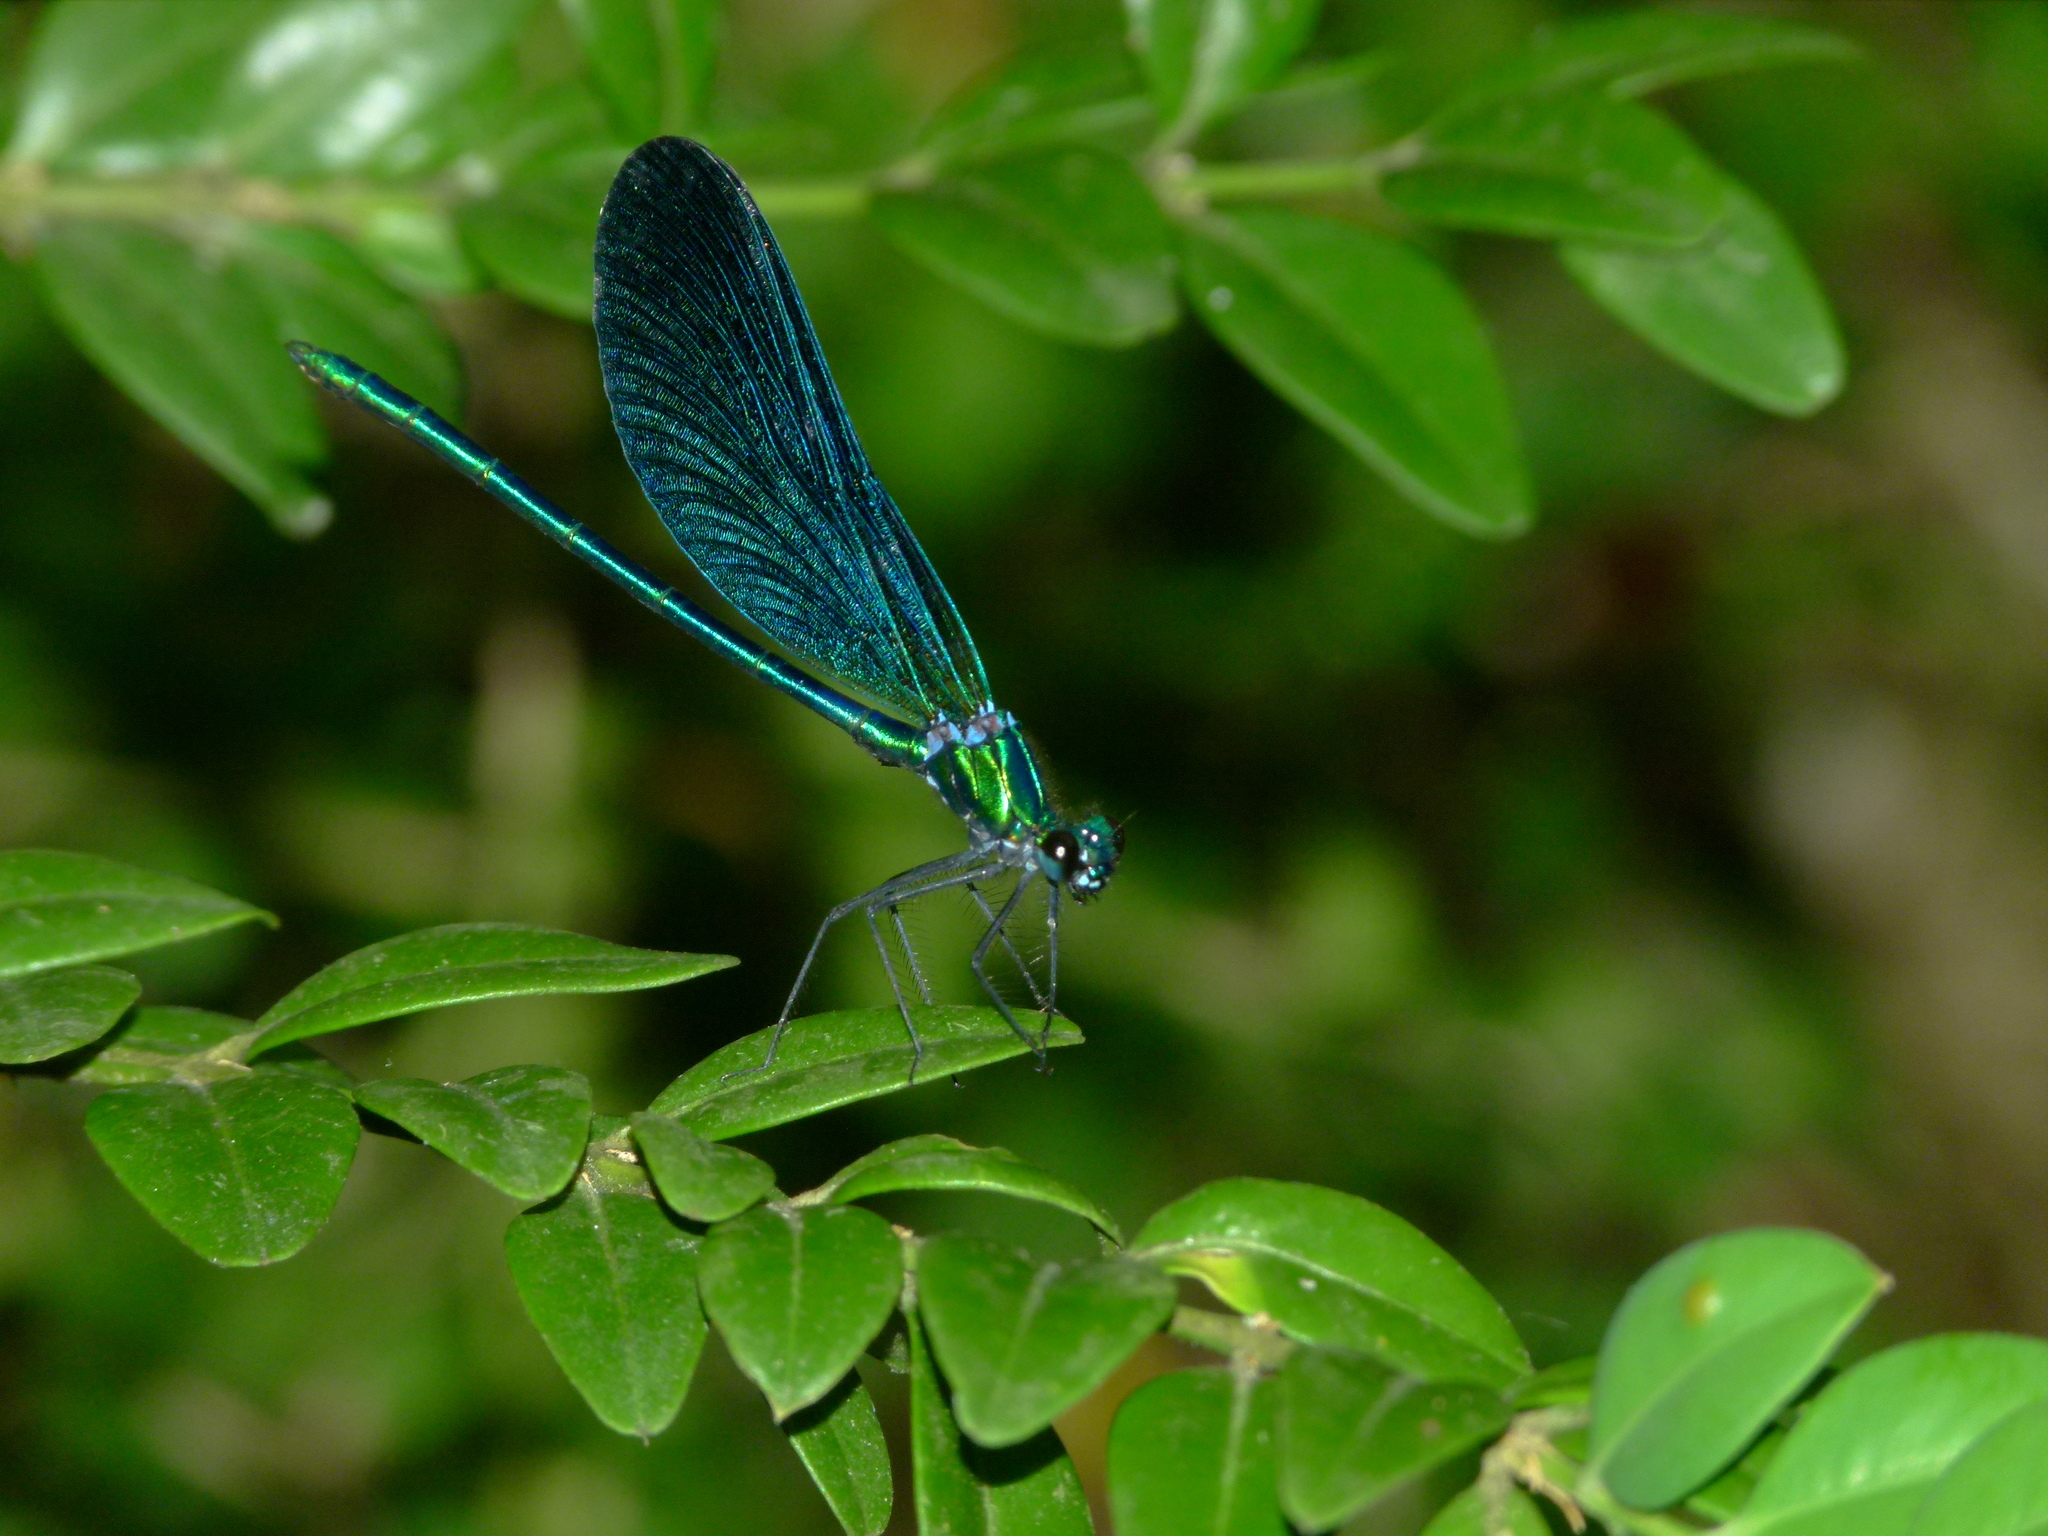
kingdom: Animalia
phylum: Arthropoda
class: Insecta
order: Odonata
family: Calopterygidae
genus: Calopteryx
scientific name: Calopteryx virgo
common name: Beautiful demoiselle
